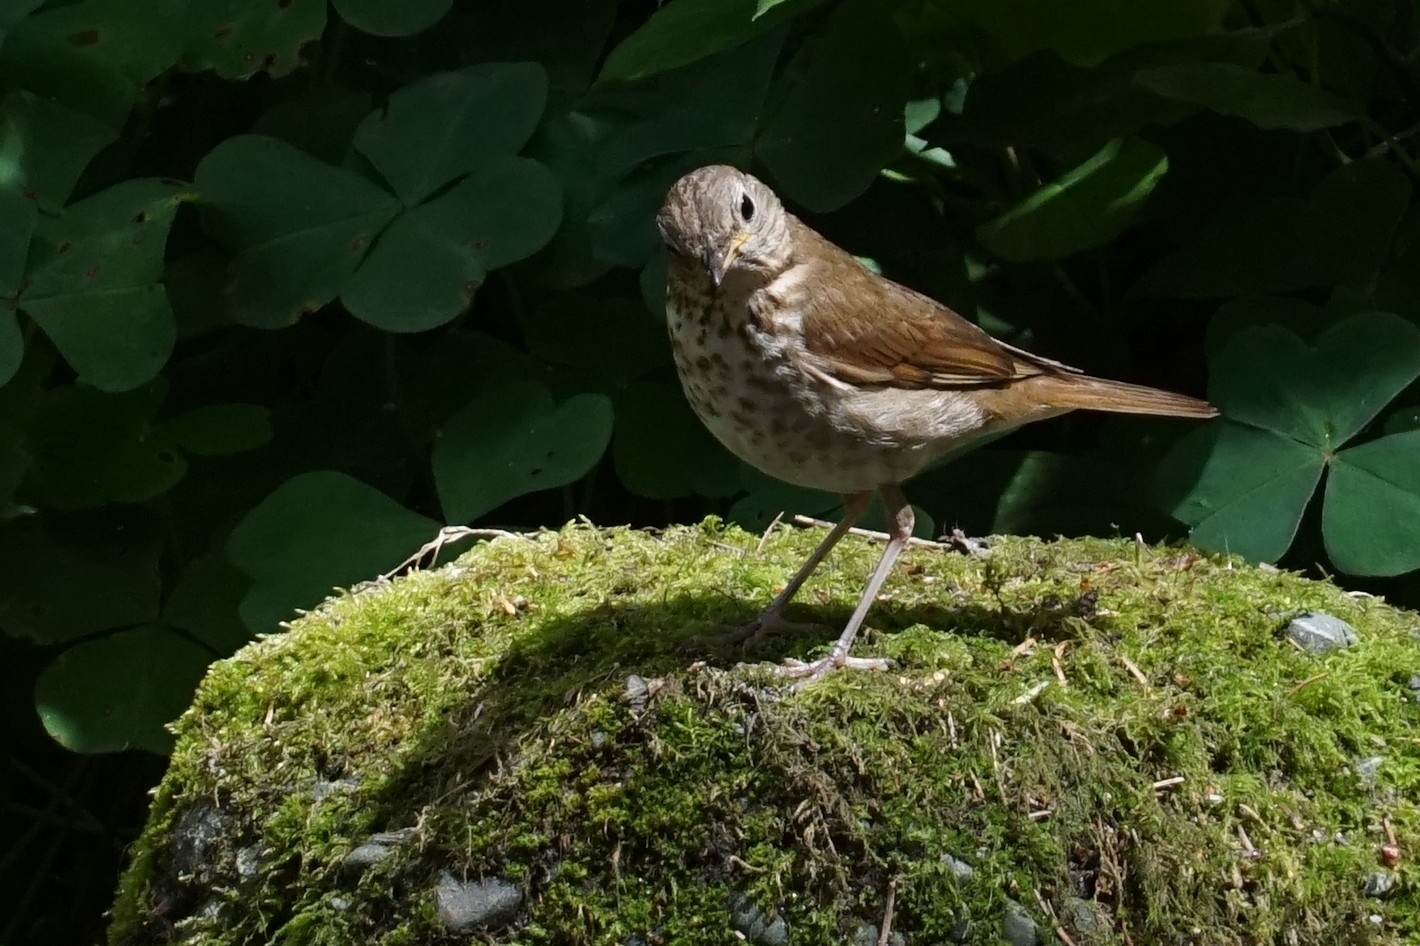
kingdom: Animalia
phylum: Chordata
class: Aves
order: Passeriformes
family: Turdidae
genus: Catharus
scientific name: Catharus ustulatus
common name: Swainson's thrush
